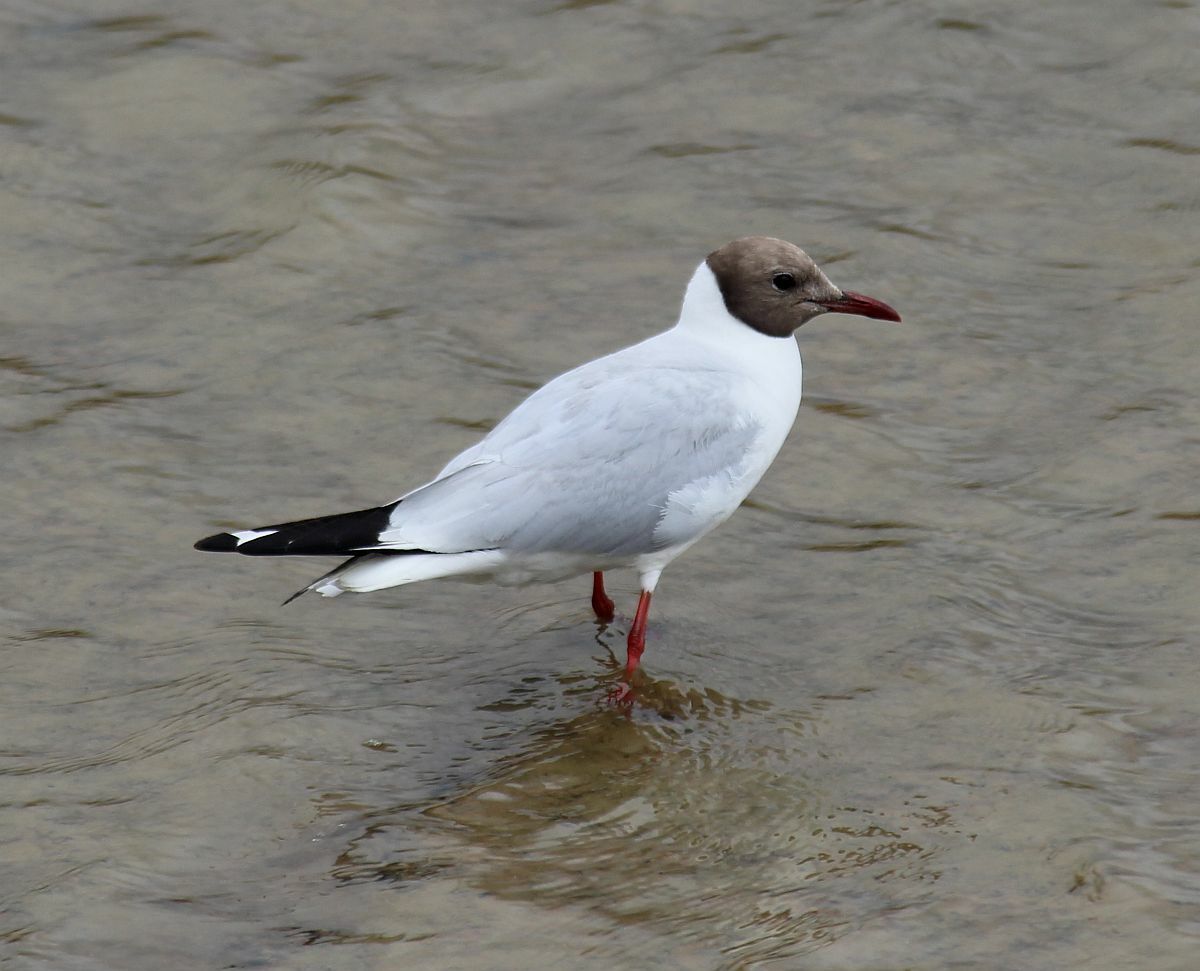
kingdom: Animalia
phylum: Chordata
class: Aves
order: Charadriiformes
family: Laridae
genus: Chroicocephalus
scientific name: Chroicocephalus ridibundus
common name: Black-headed gull
